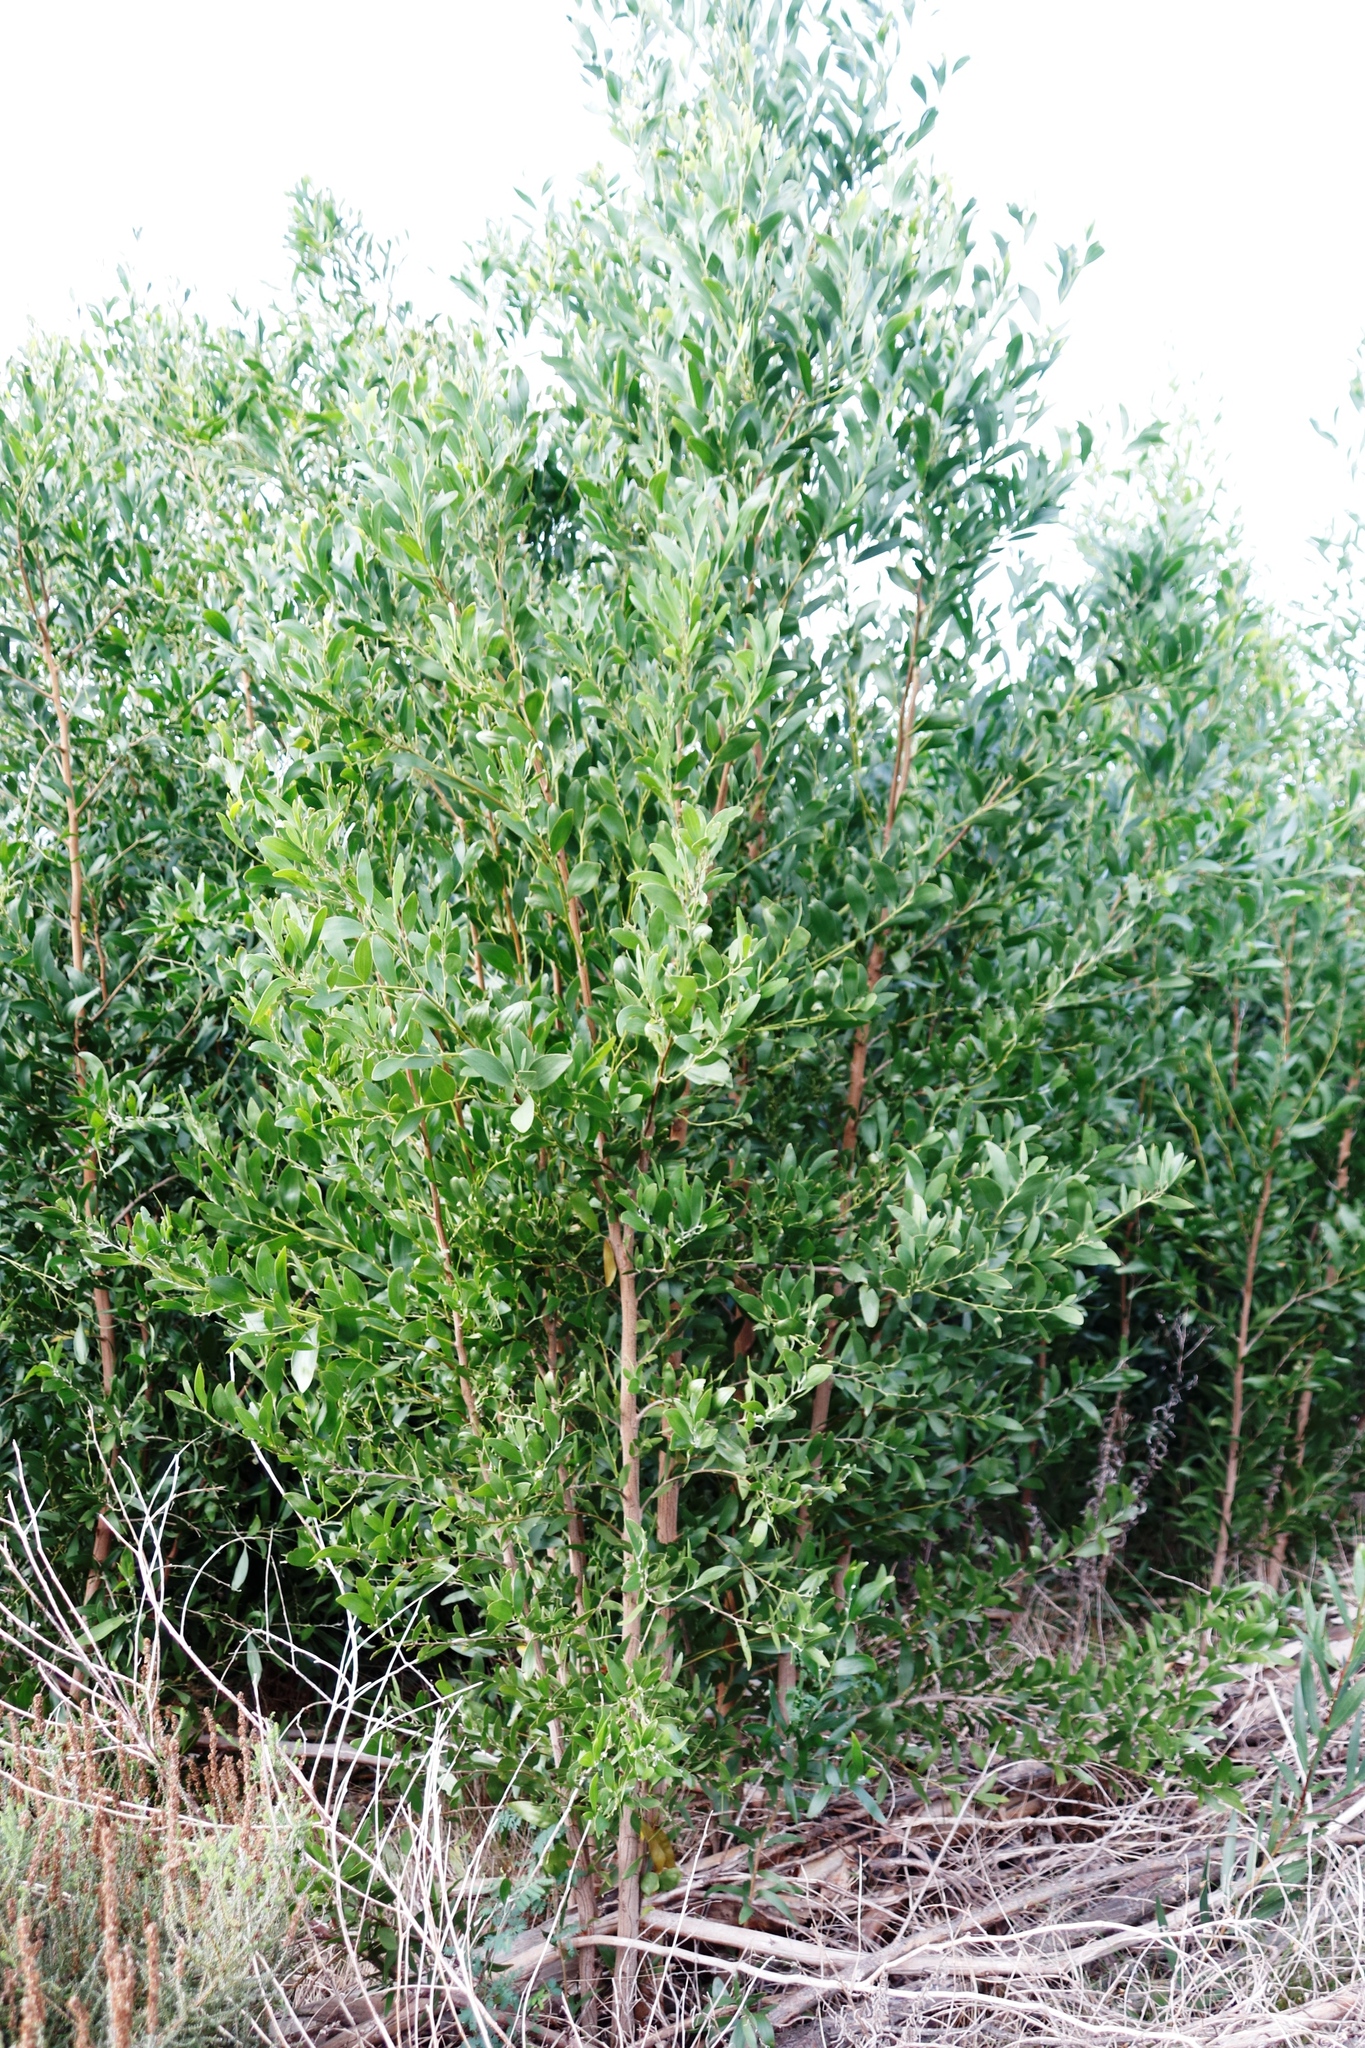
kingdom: Plantae
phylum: Tracheophyta
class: Magnoliopsida
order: Fabales
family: Fabaceae
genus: Acacia
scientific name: Acacia melanoxylon
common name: Blackwood
